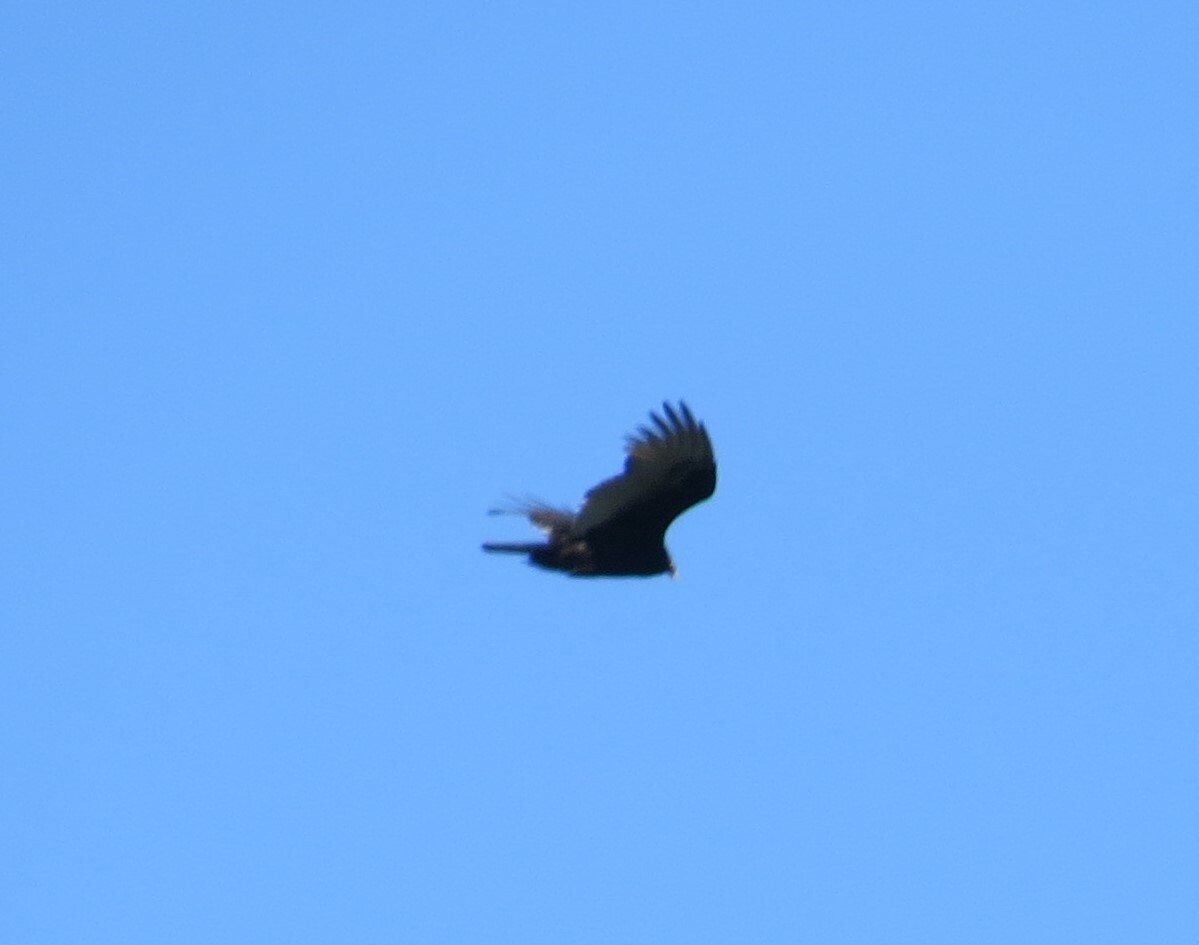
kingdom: Animalia
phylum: Chordata
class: Aves
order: Accipitriformes
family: Cathartidae
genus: Cathartes
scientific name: Cathartes aura
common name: Turkey vulture
